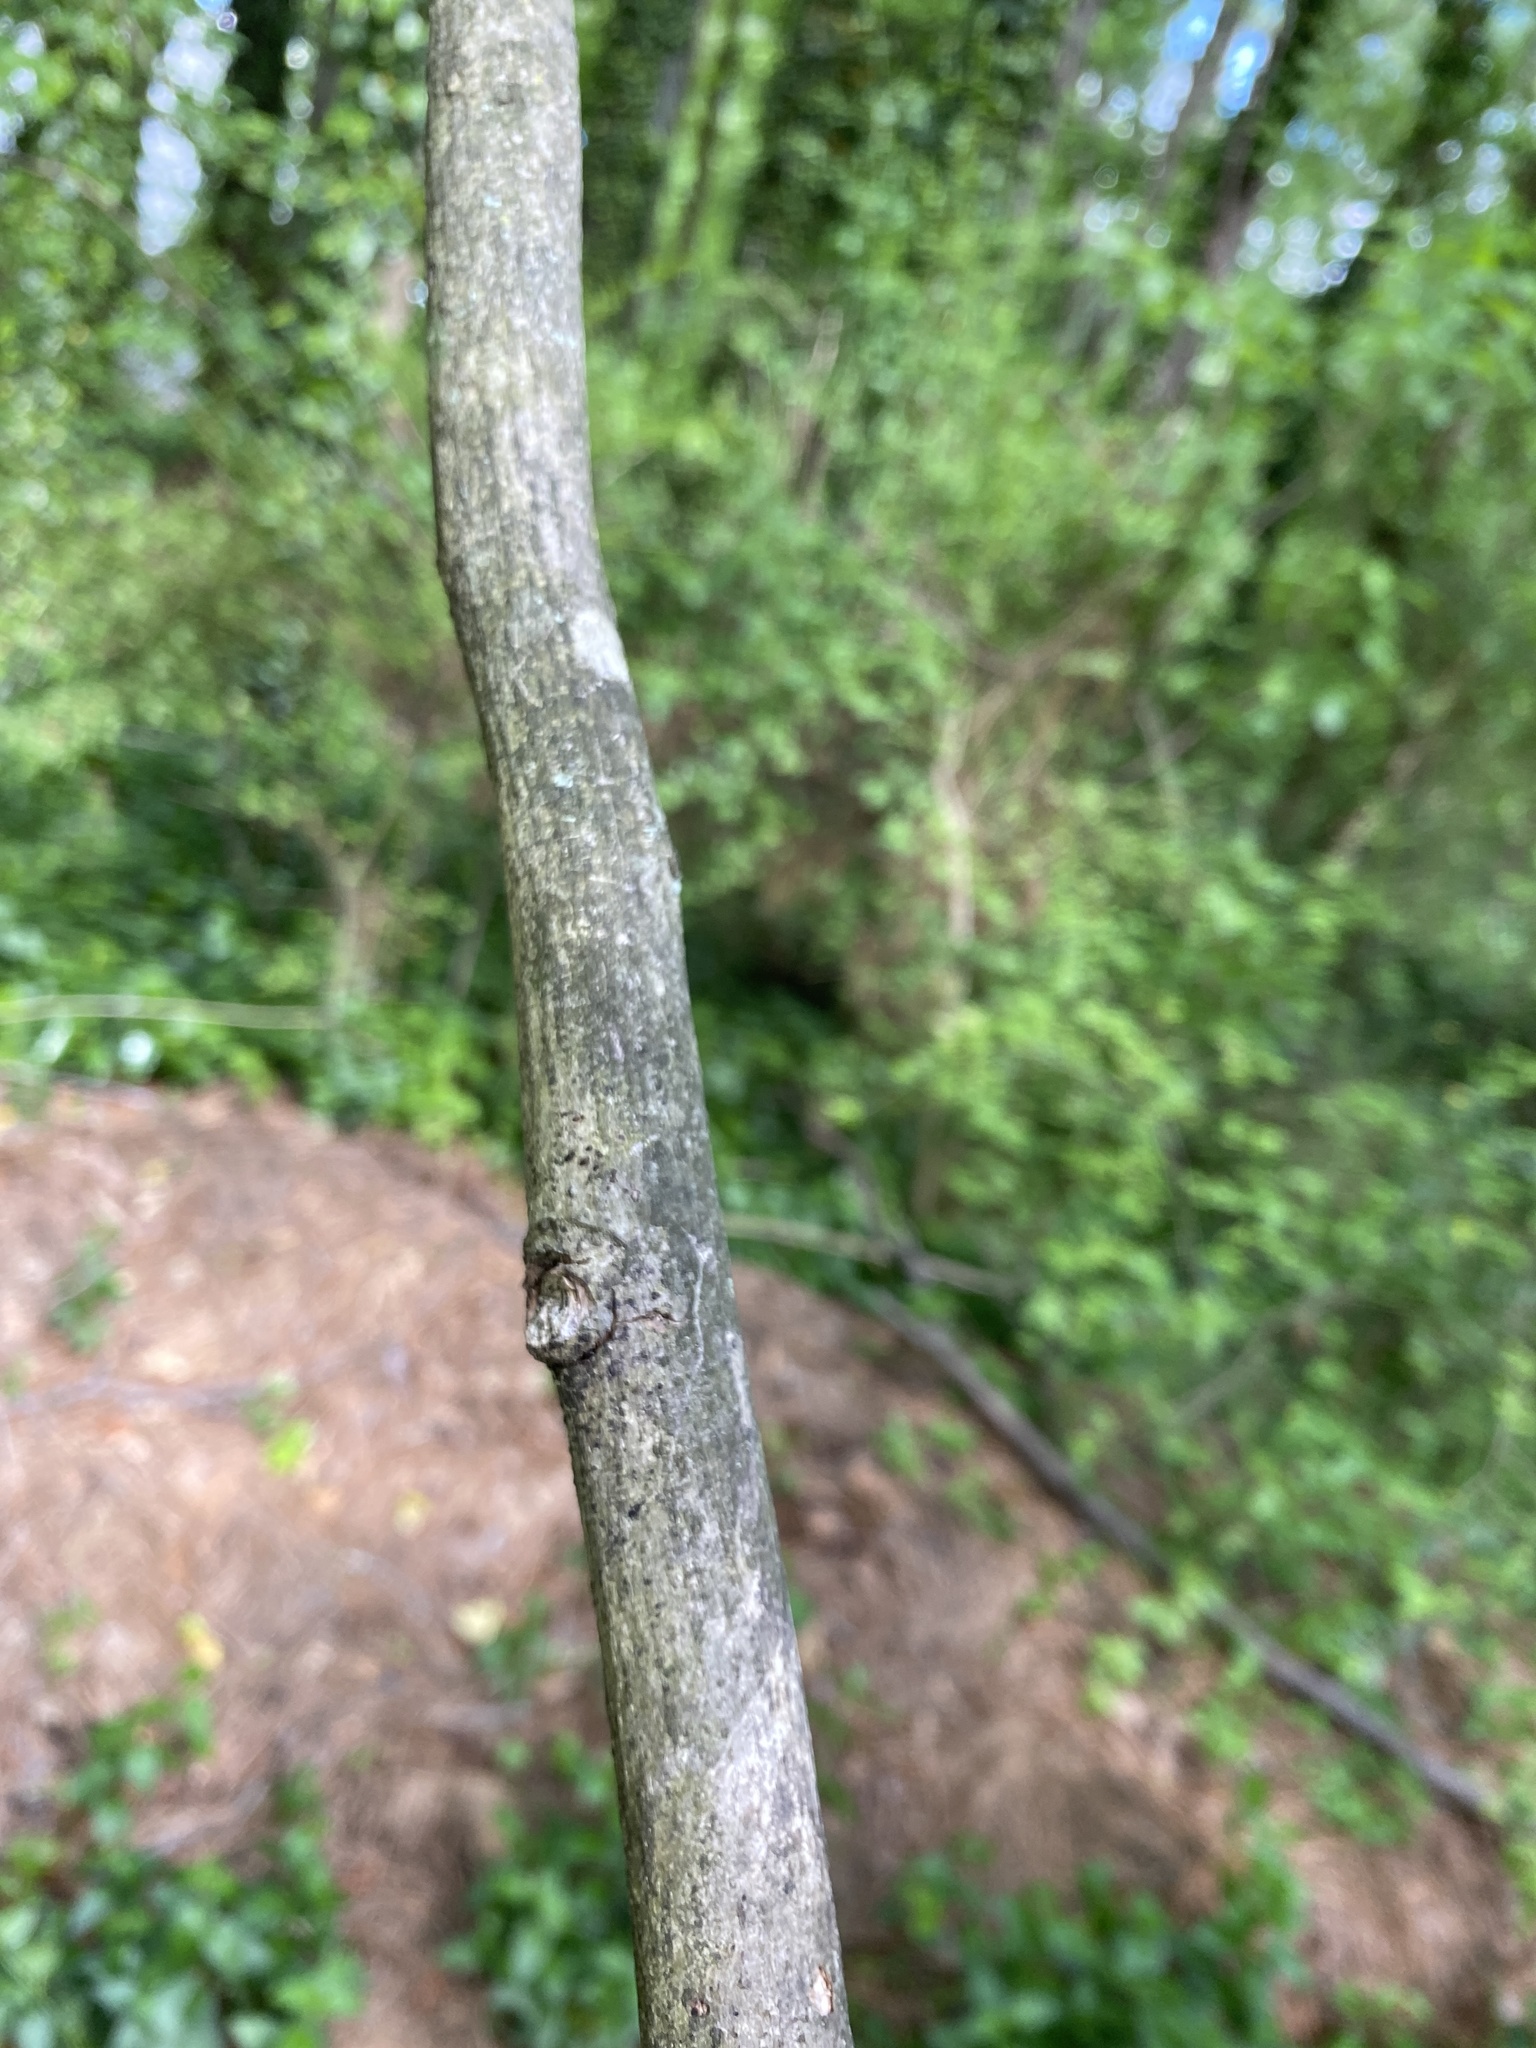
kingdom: Plantae
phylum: Tracheophyta
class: Magnoliopsida
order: Fagales
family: Juglandaceae
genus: Carya
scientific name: Carya alba
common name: Mockernut hickory
